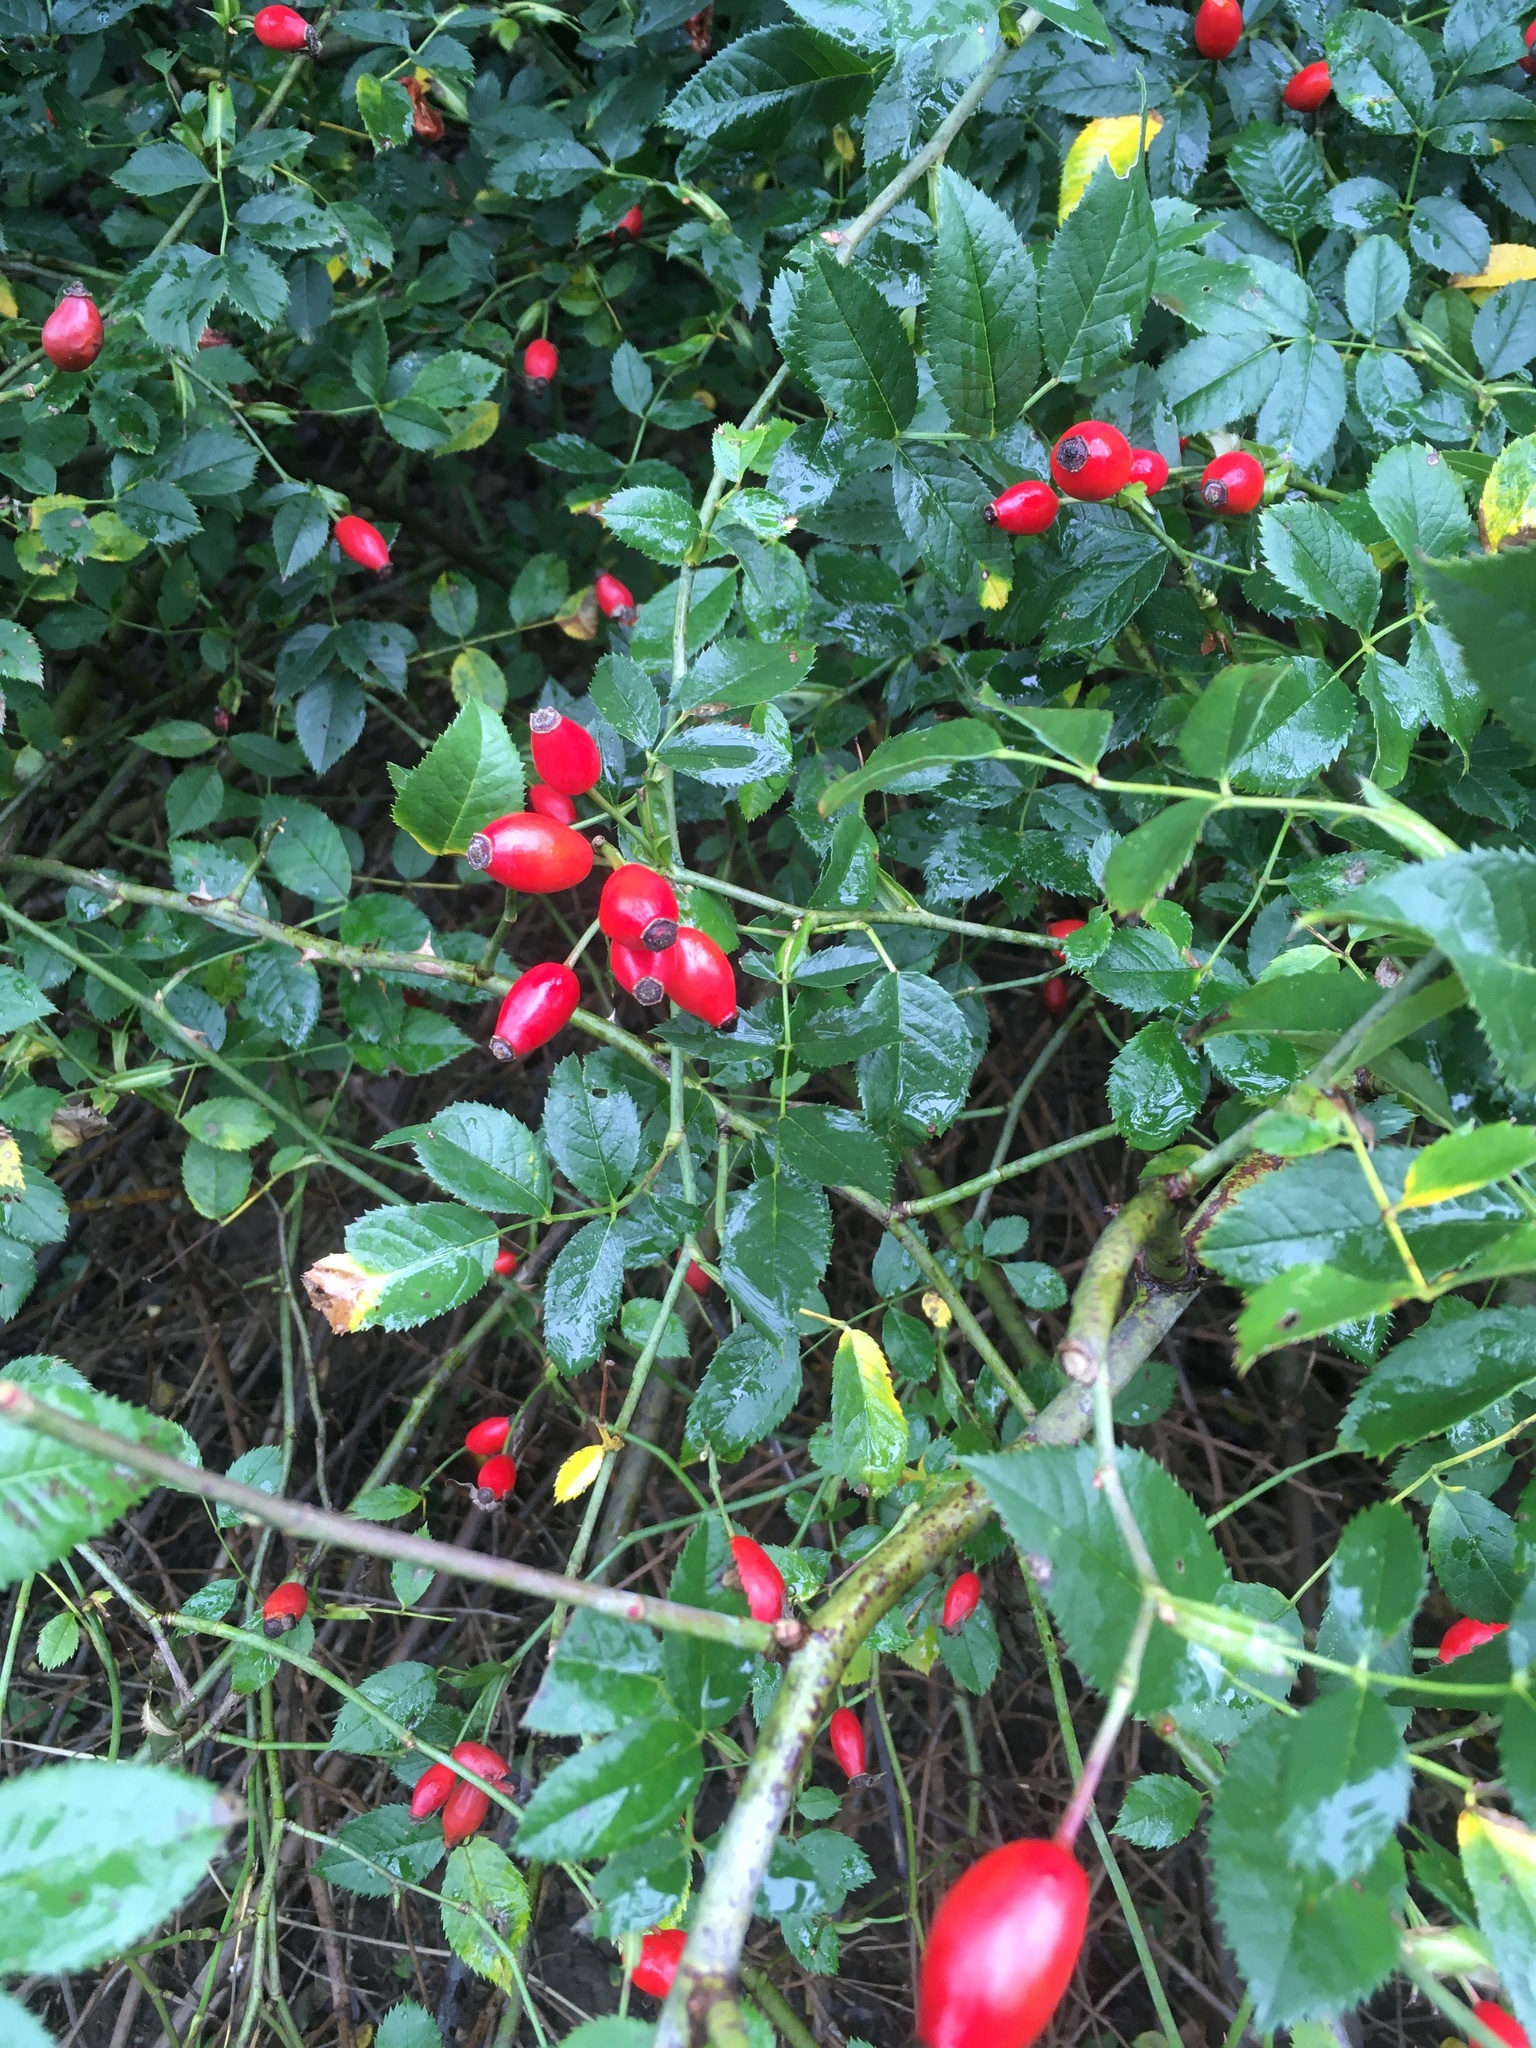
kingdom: Plantae
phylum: Tracheophyta
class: Magnoliopsida
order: Rosales
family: Rosaceae
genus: Rosa
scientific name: Rosa canina
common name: Dog rose
